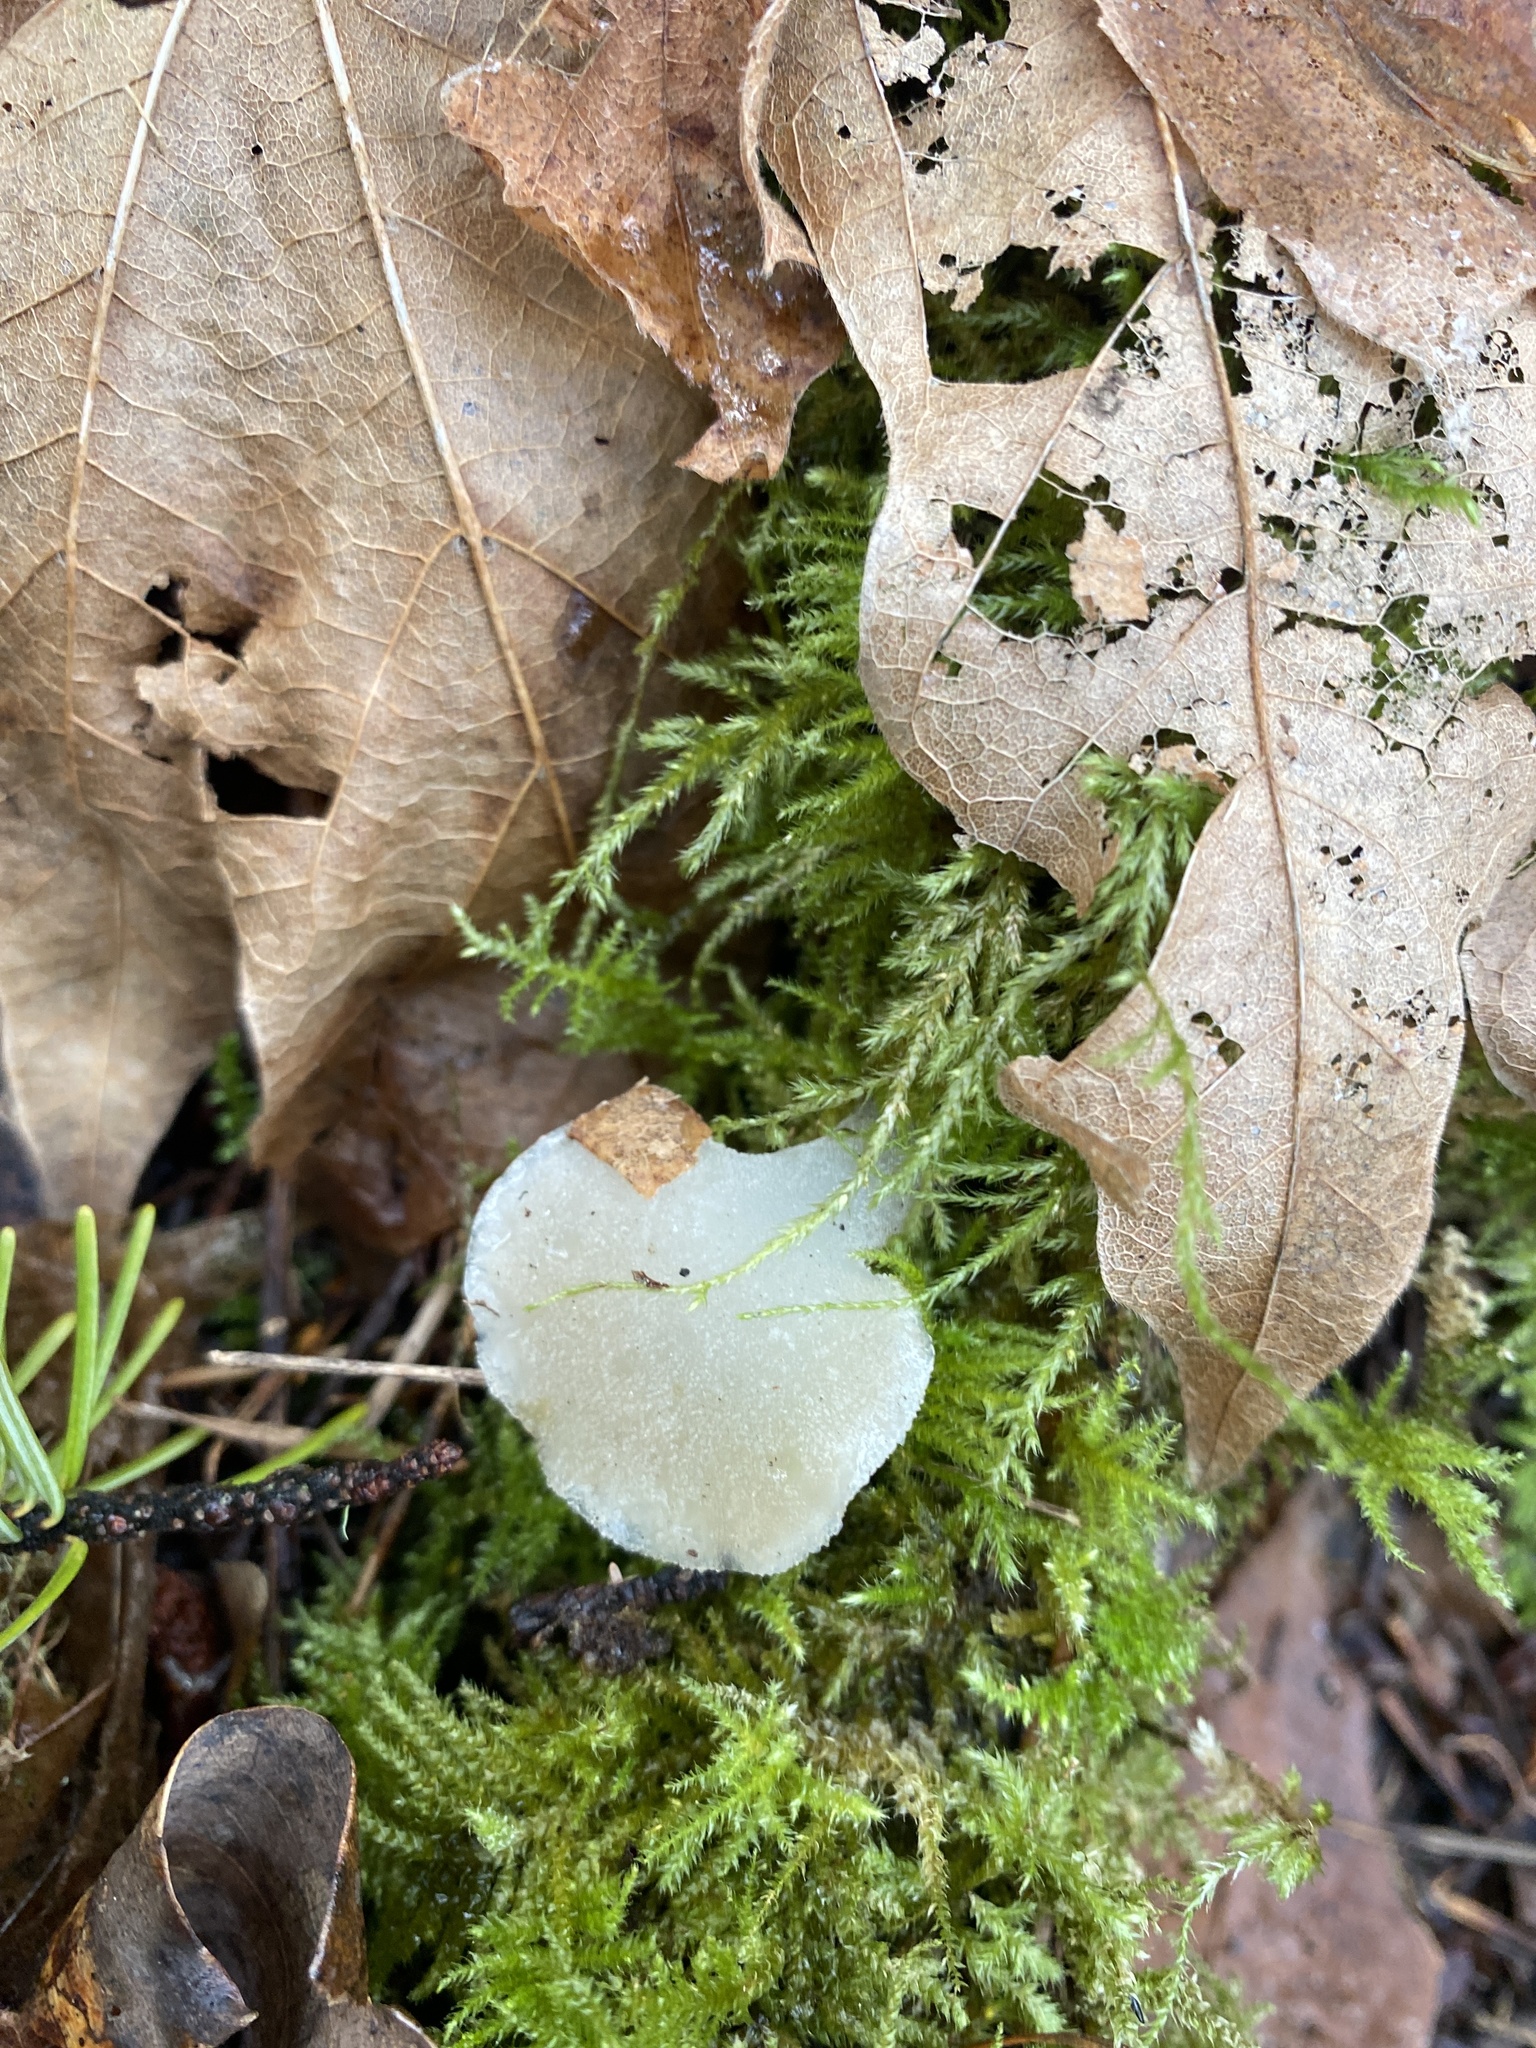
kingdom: Fungi
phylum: Basidiomycota
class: Agaricomycetes
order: Auriculariales
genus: Pseudohydnum
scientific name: Pseudohydnum gelatinosum
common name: Jelly tongue
